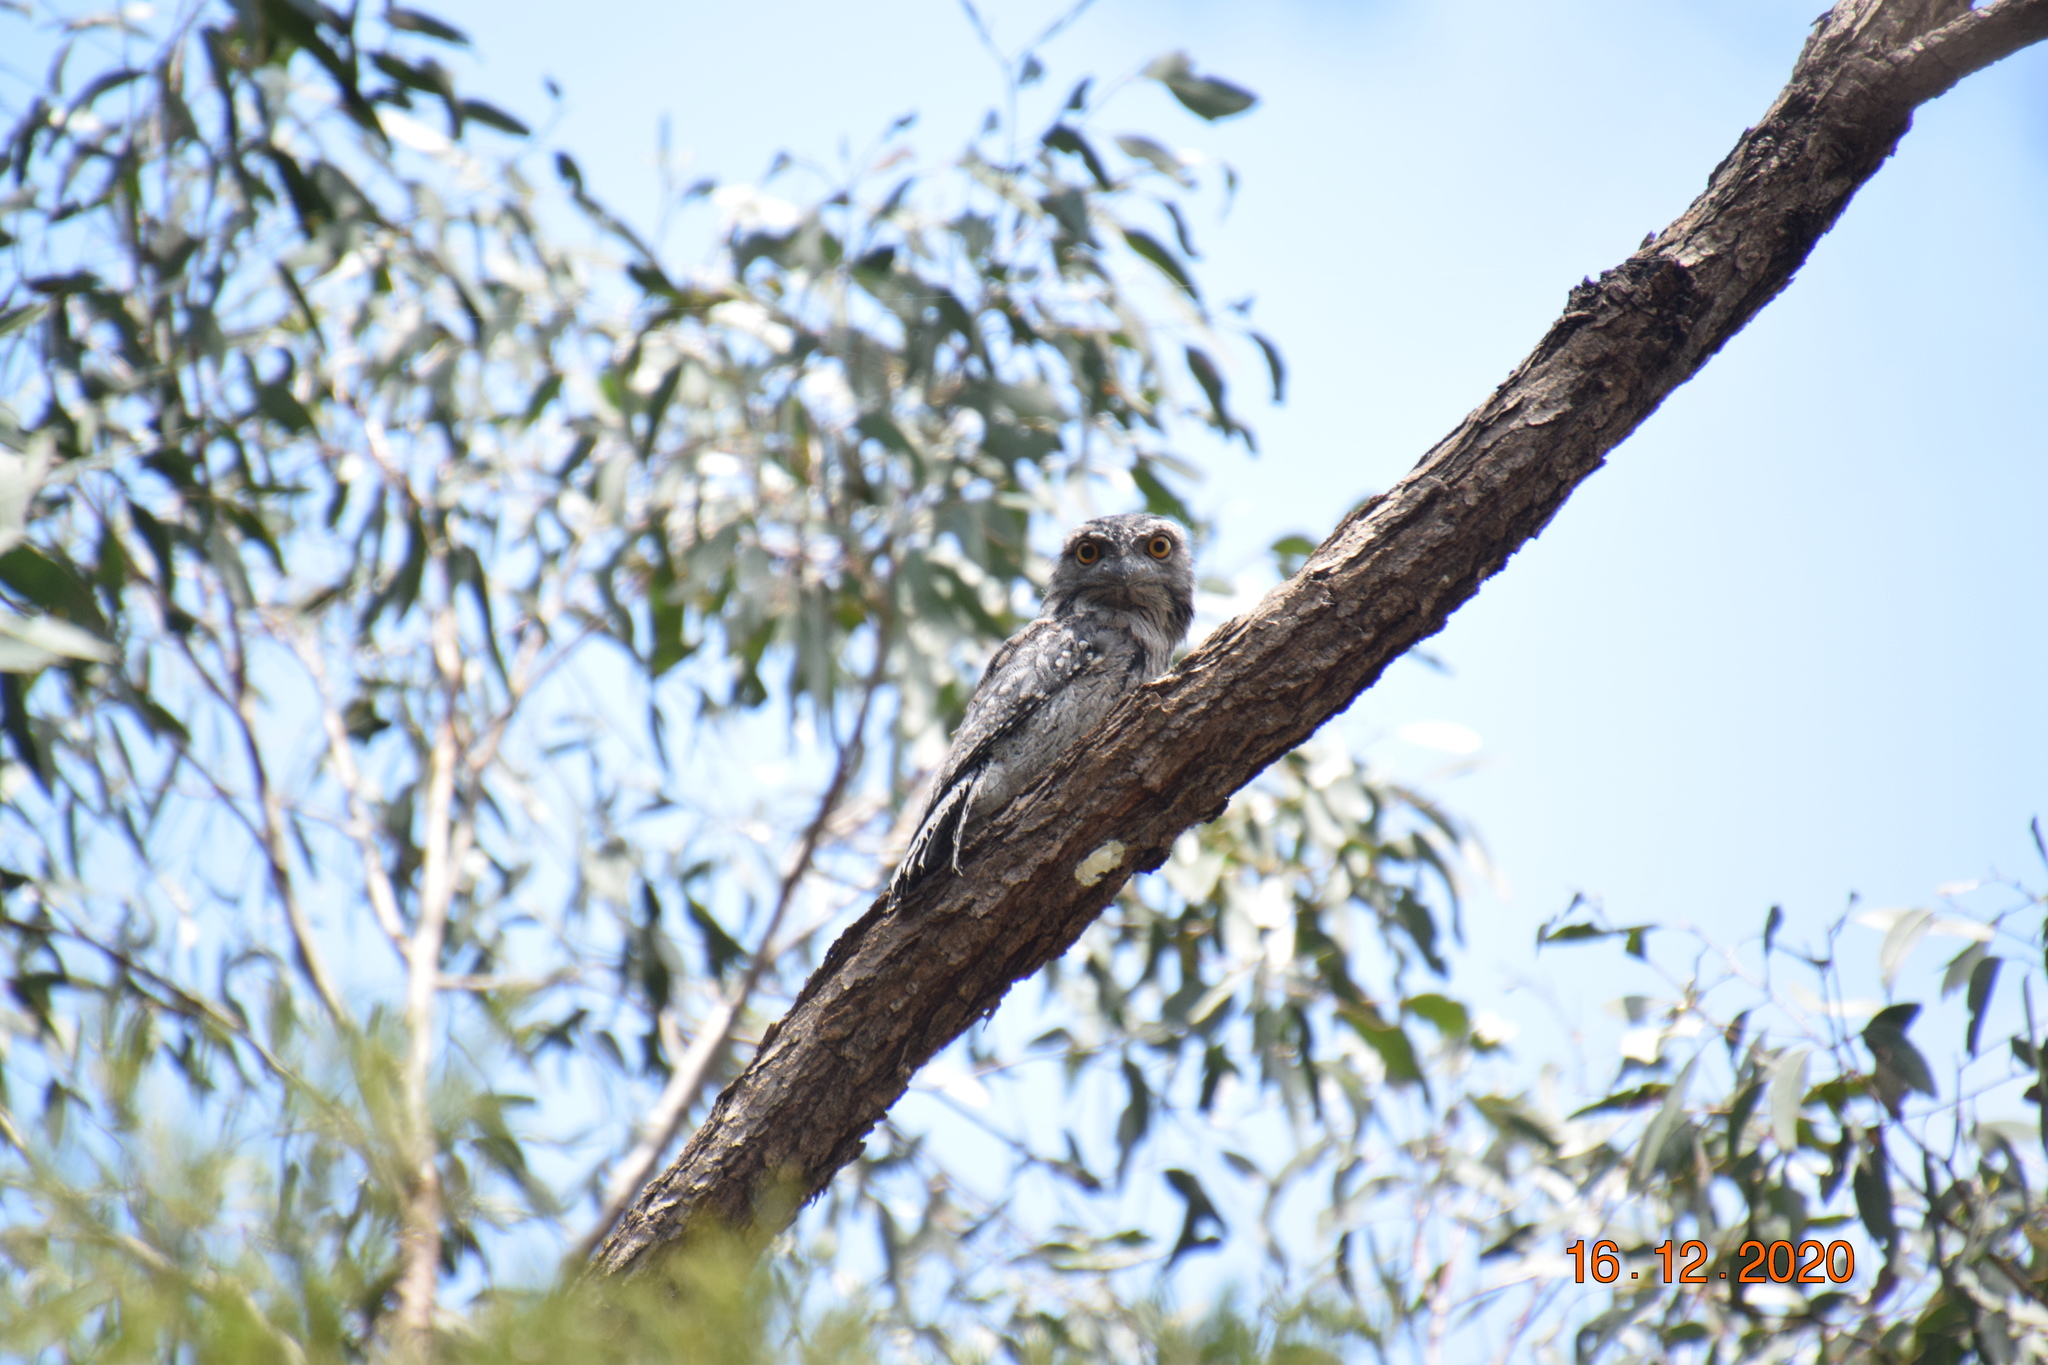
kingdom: Animalia
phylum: Chordata
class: Aves
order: Caprimulgiformes
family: Podargidae
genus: Podargus
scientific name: Podargus strigoides
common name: Tawny frogmouth
